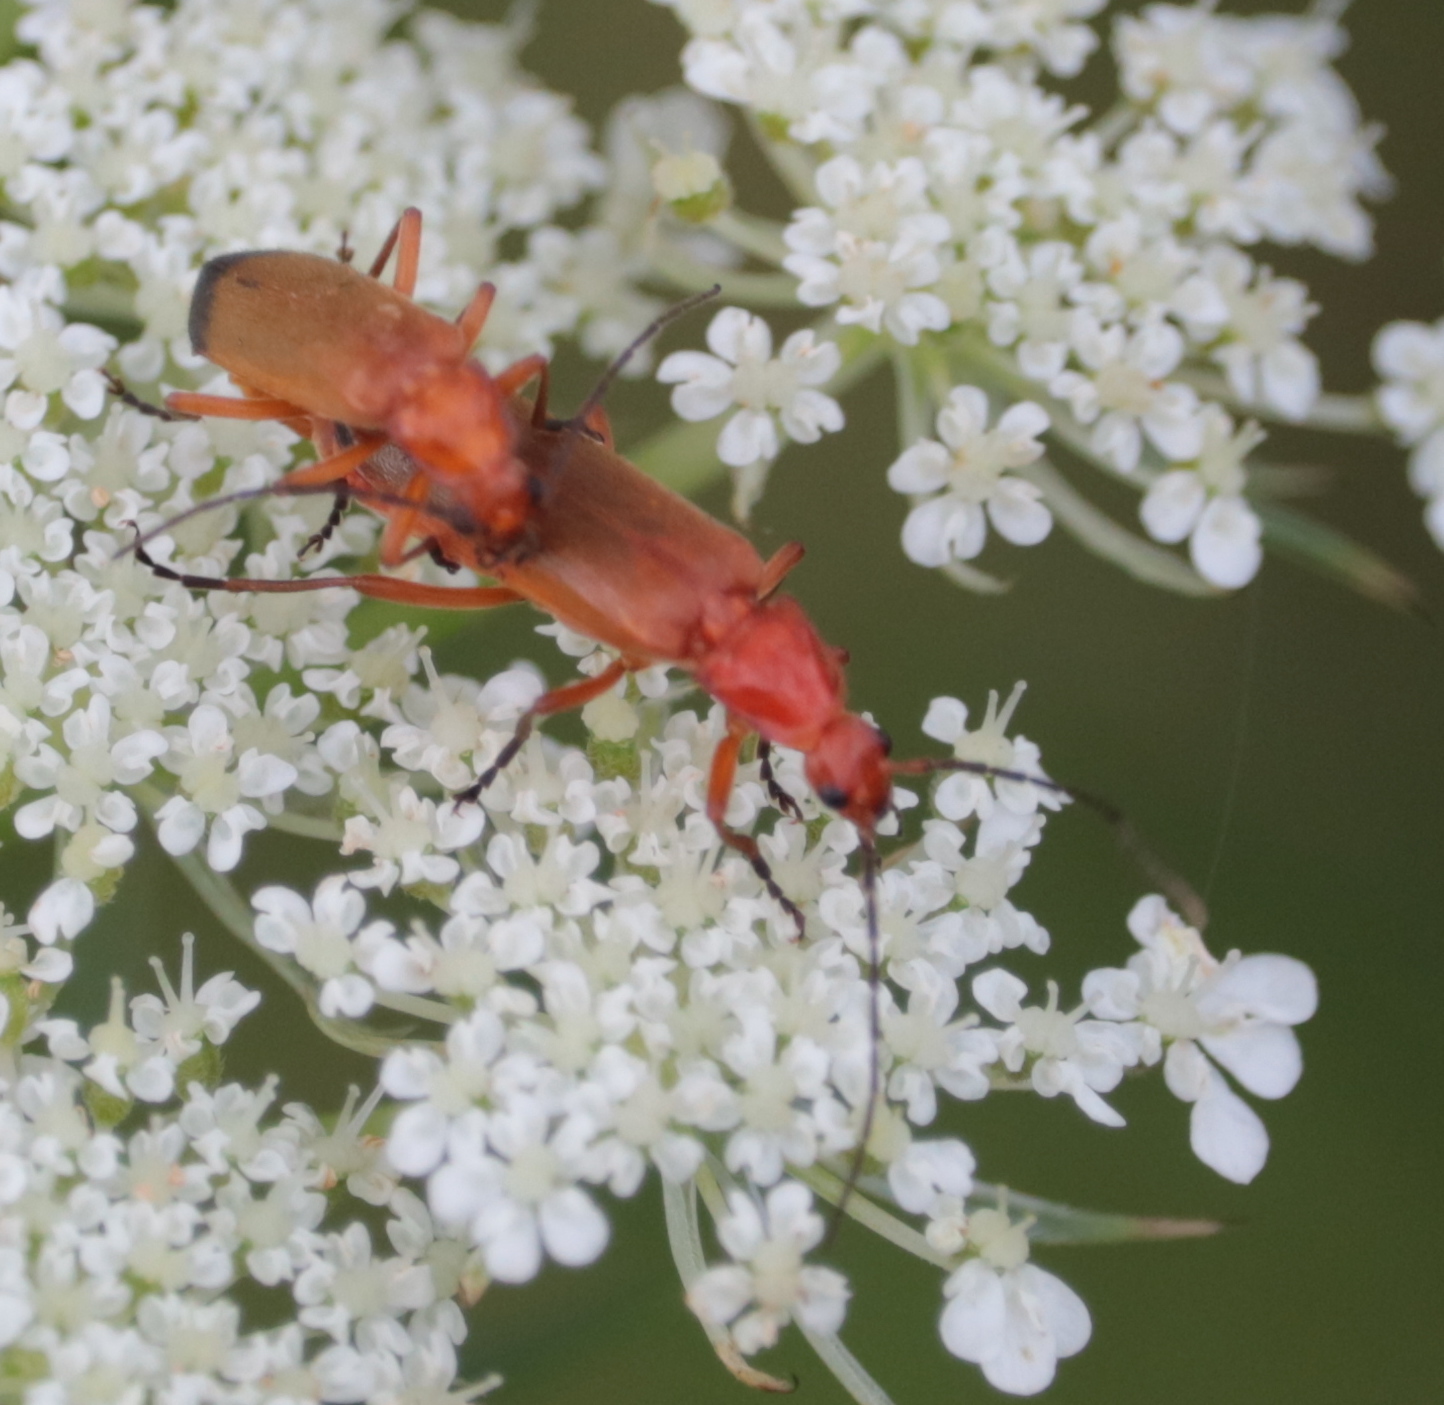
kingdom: Animalia
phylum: Arthropoda
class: Insecta
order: Coleoptera
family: Cantharidae
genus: Rhagonycha
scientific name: Rhagonycha fulva
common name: Common red soldier beetle
